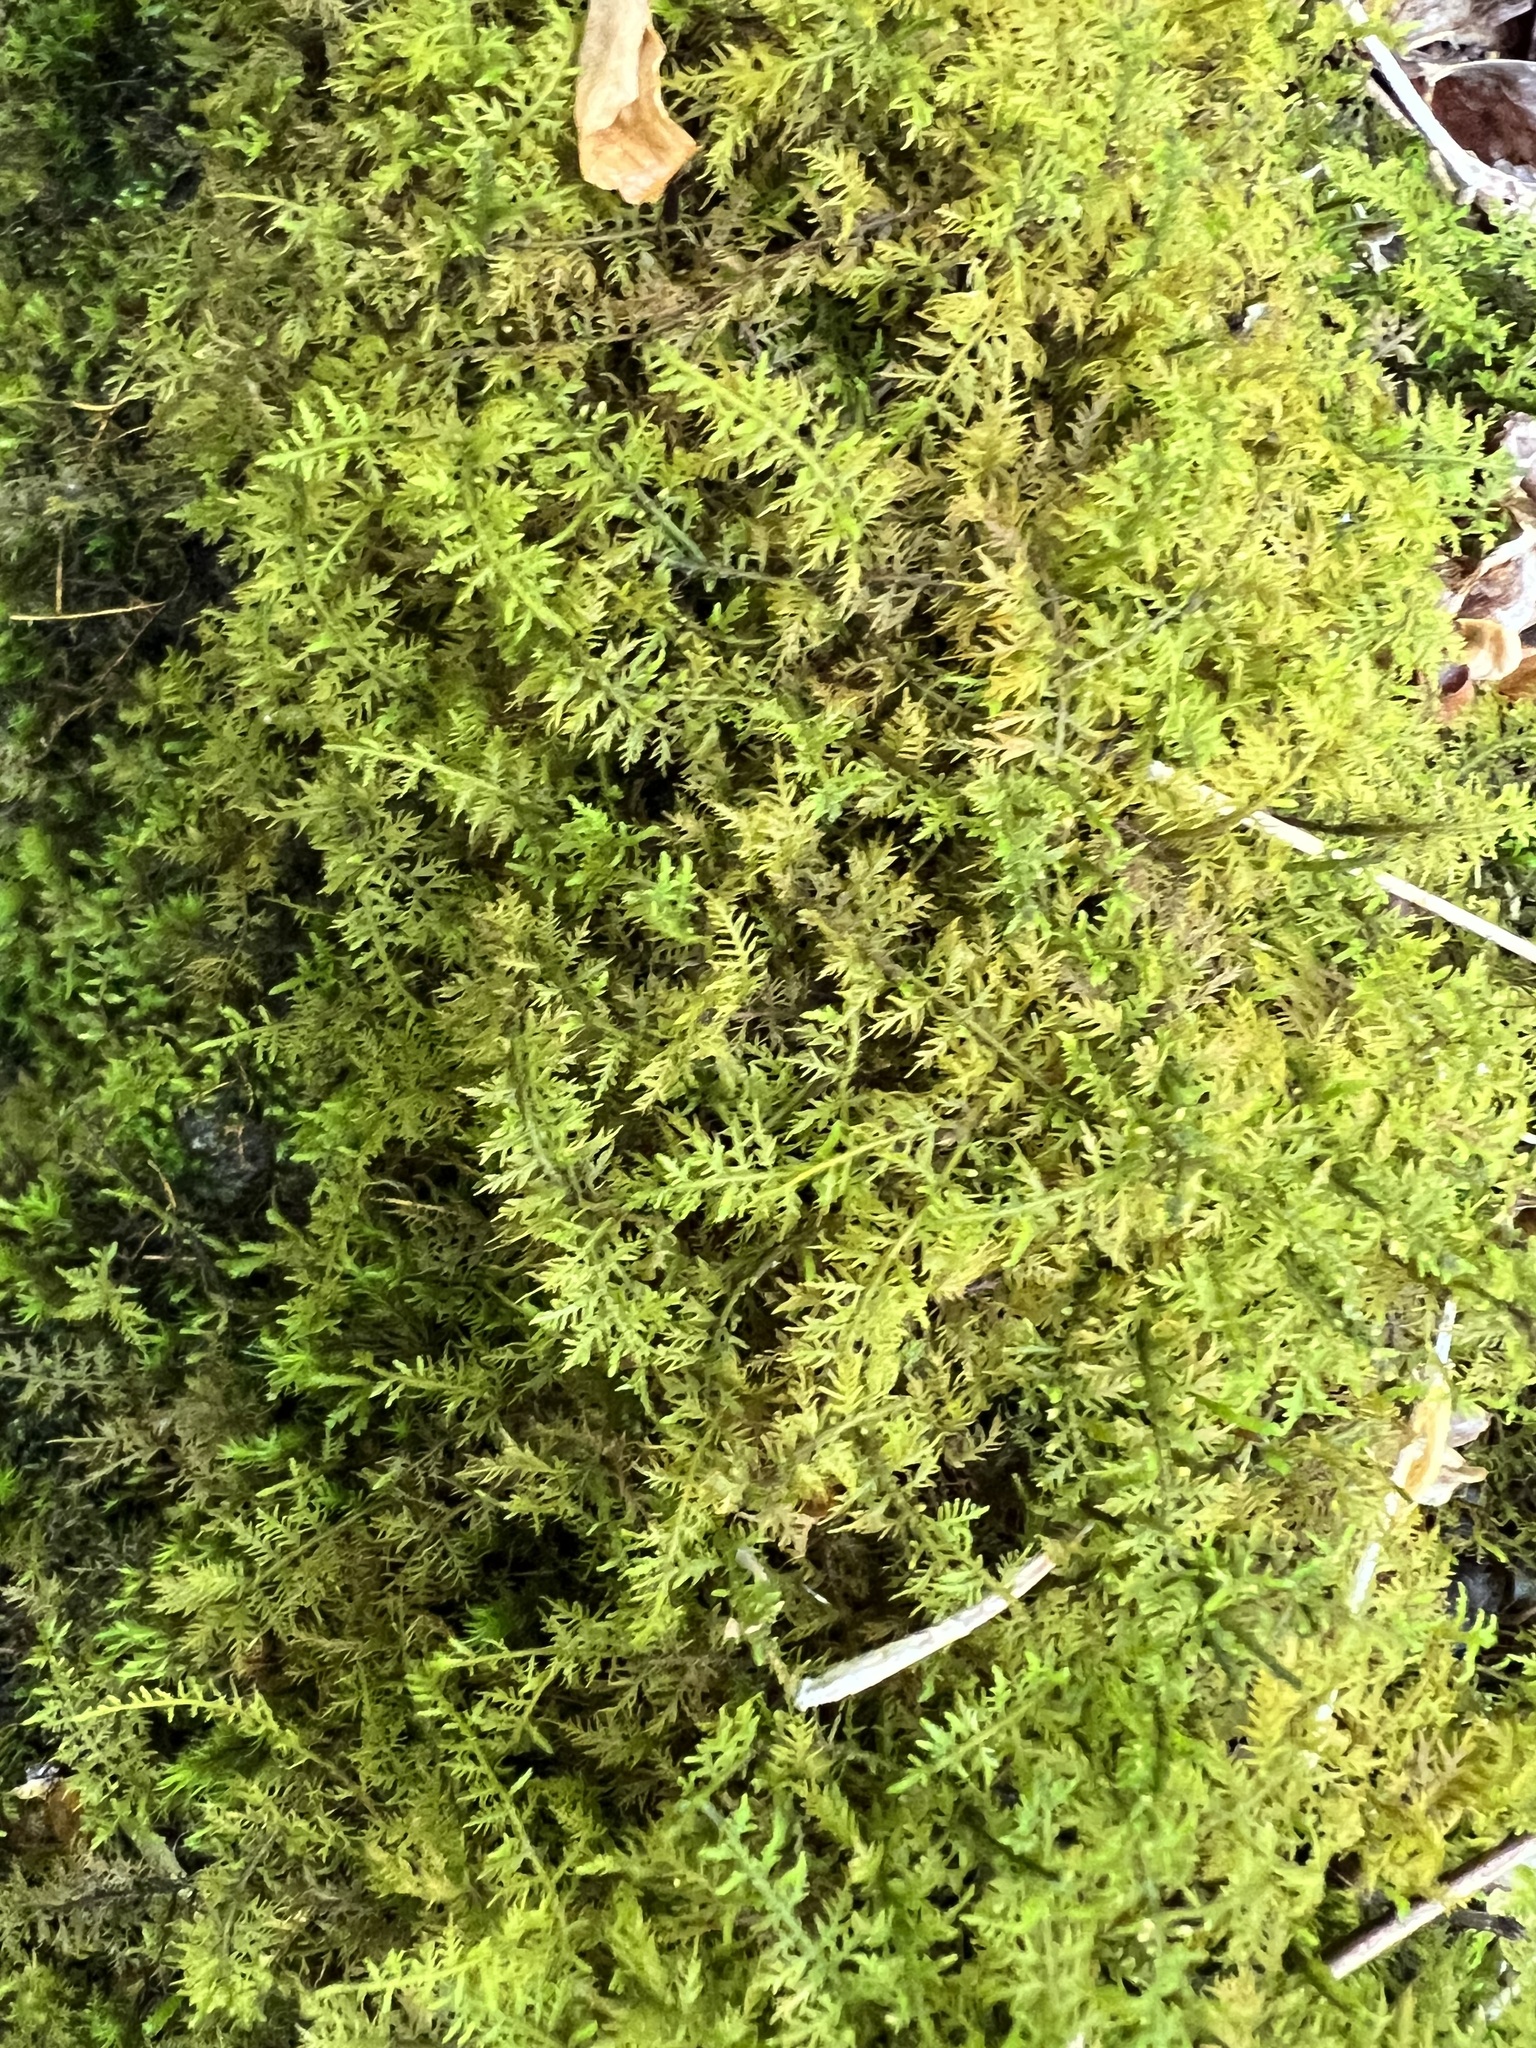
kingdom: Plantae
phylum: Bryophyta
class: Bryopsida
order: Hypnales
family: Thuidiaceae
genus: Thuidium
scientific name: Thuidium delicatulum
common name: Delicate fern moss
